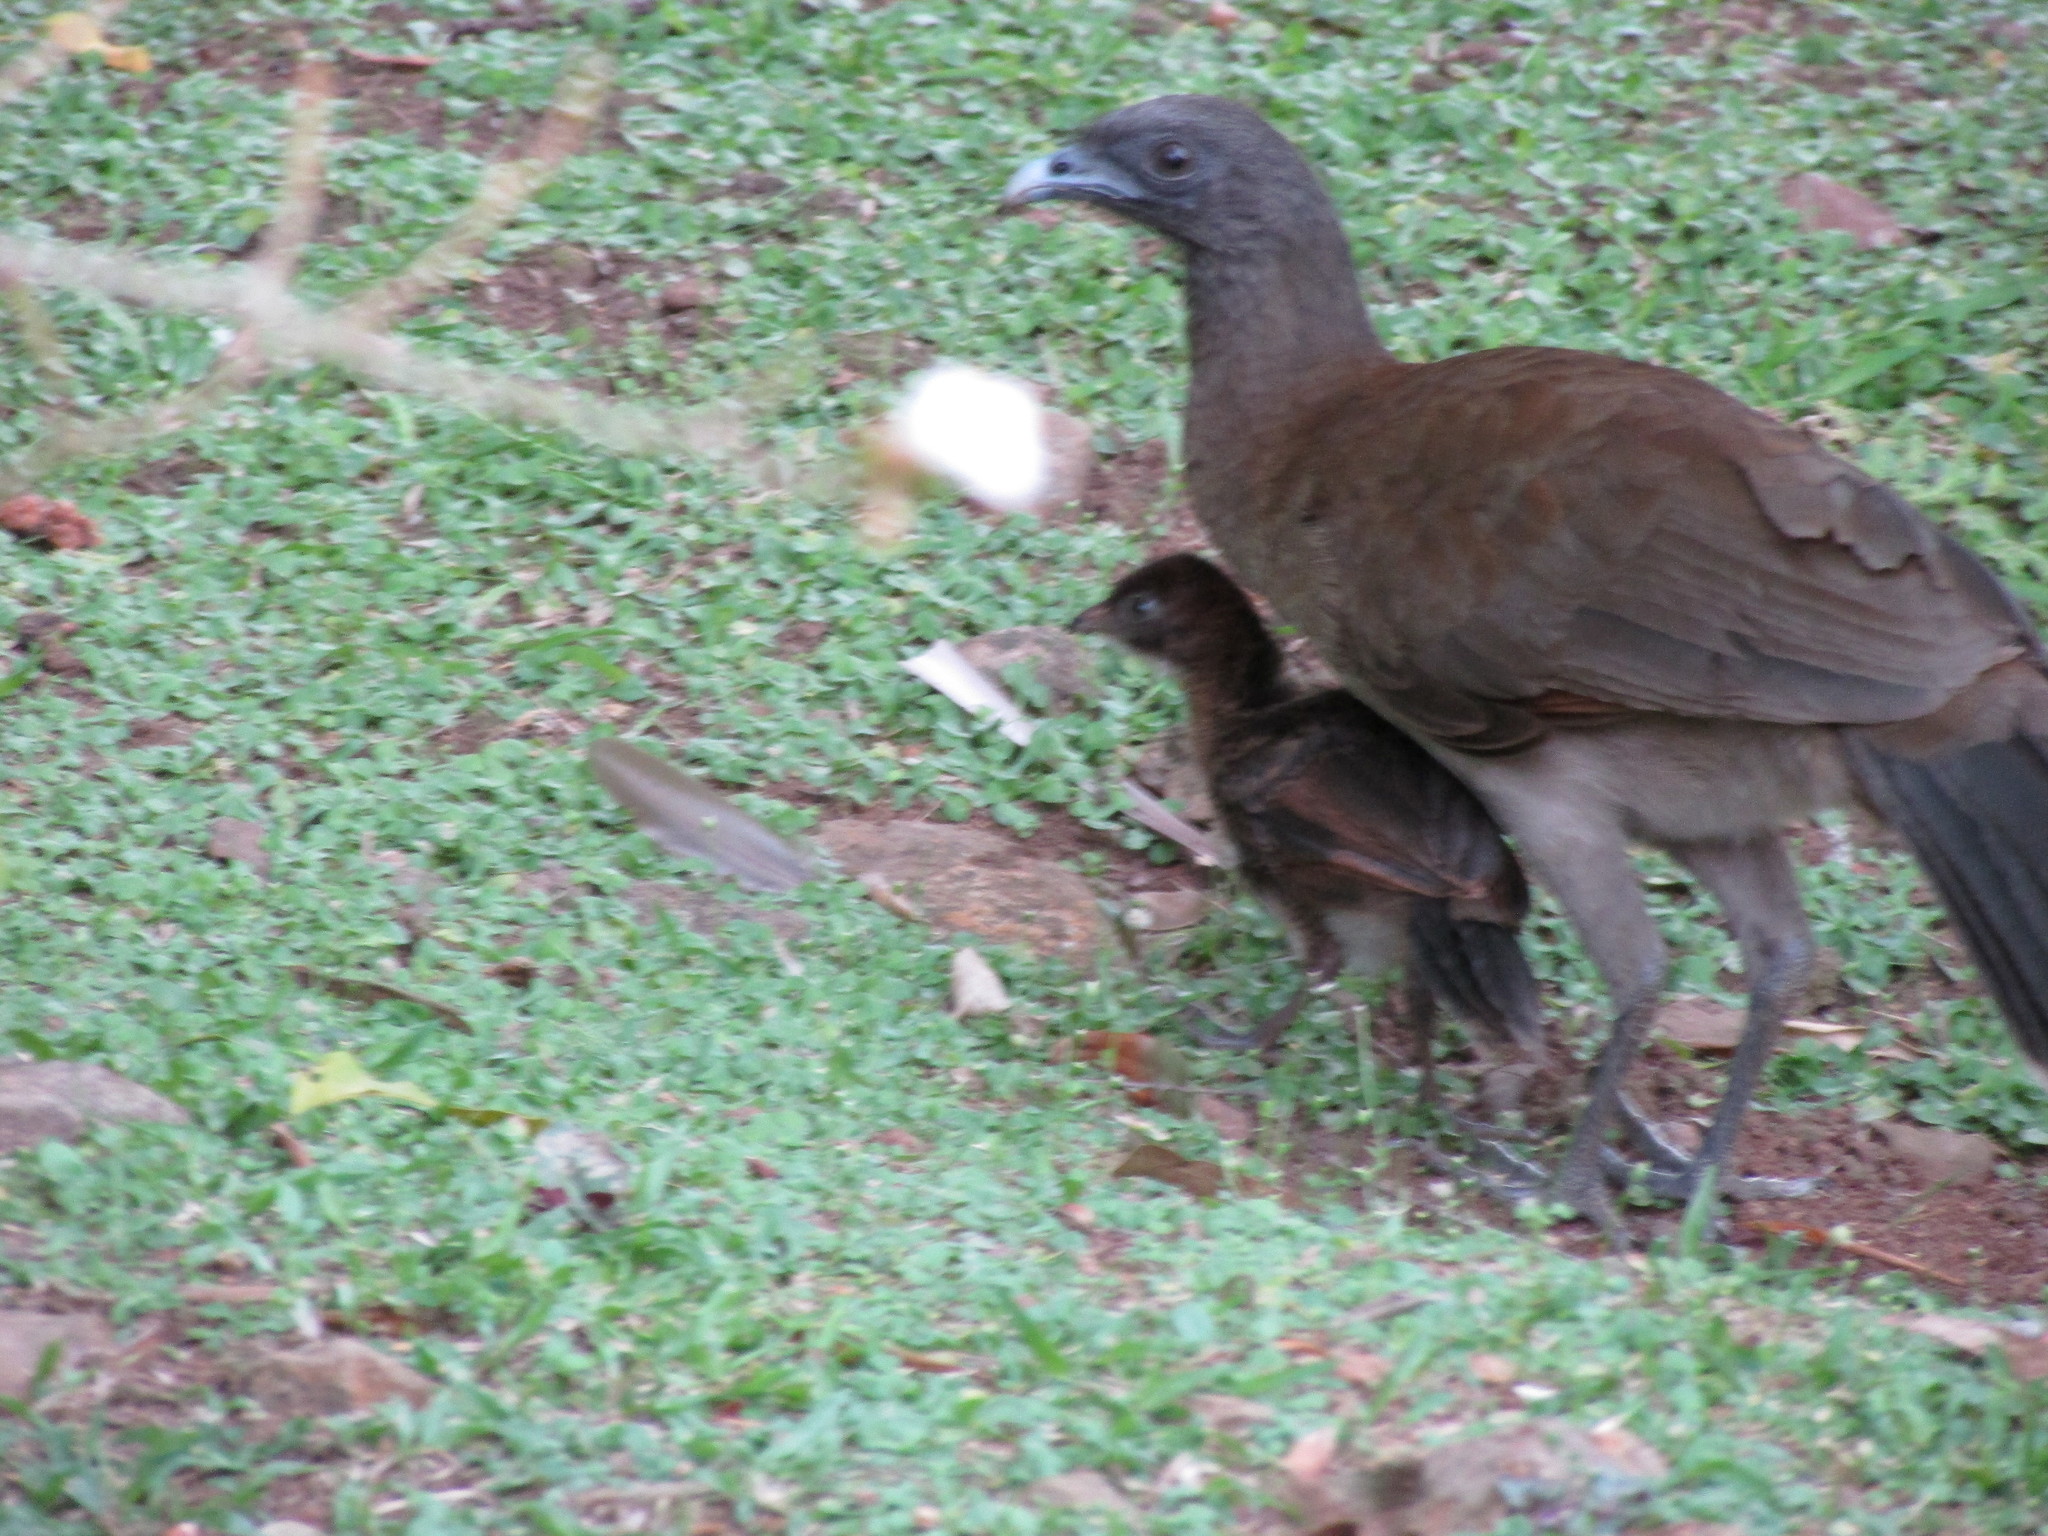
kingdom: Animalia
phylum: Chordata
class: Aves
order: Galliformes
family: Cracidae
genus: Ortalis
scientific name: Ortalis cinereiceps
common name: Grey-headed chachalaca
